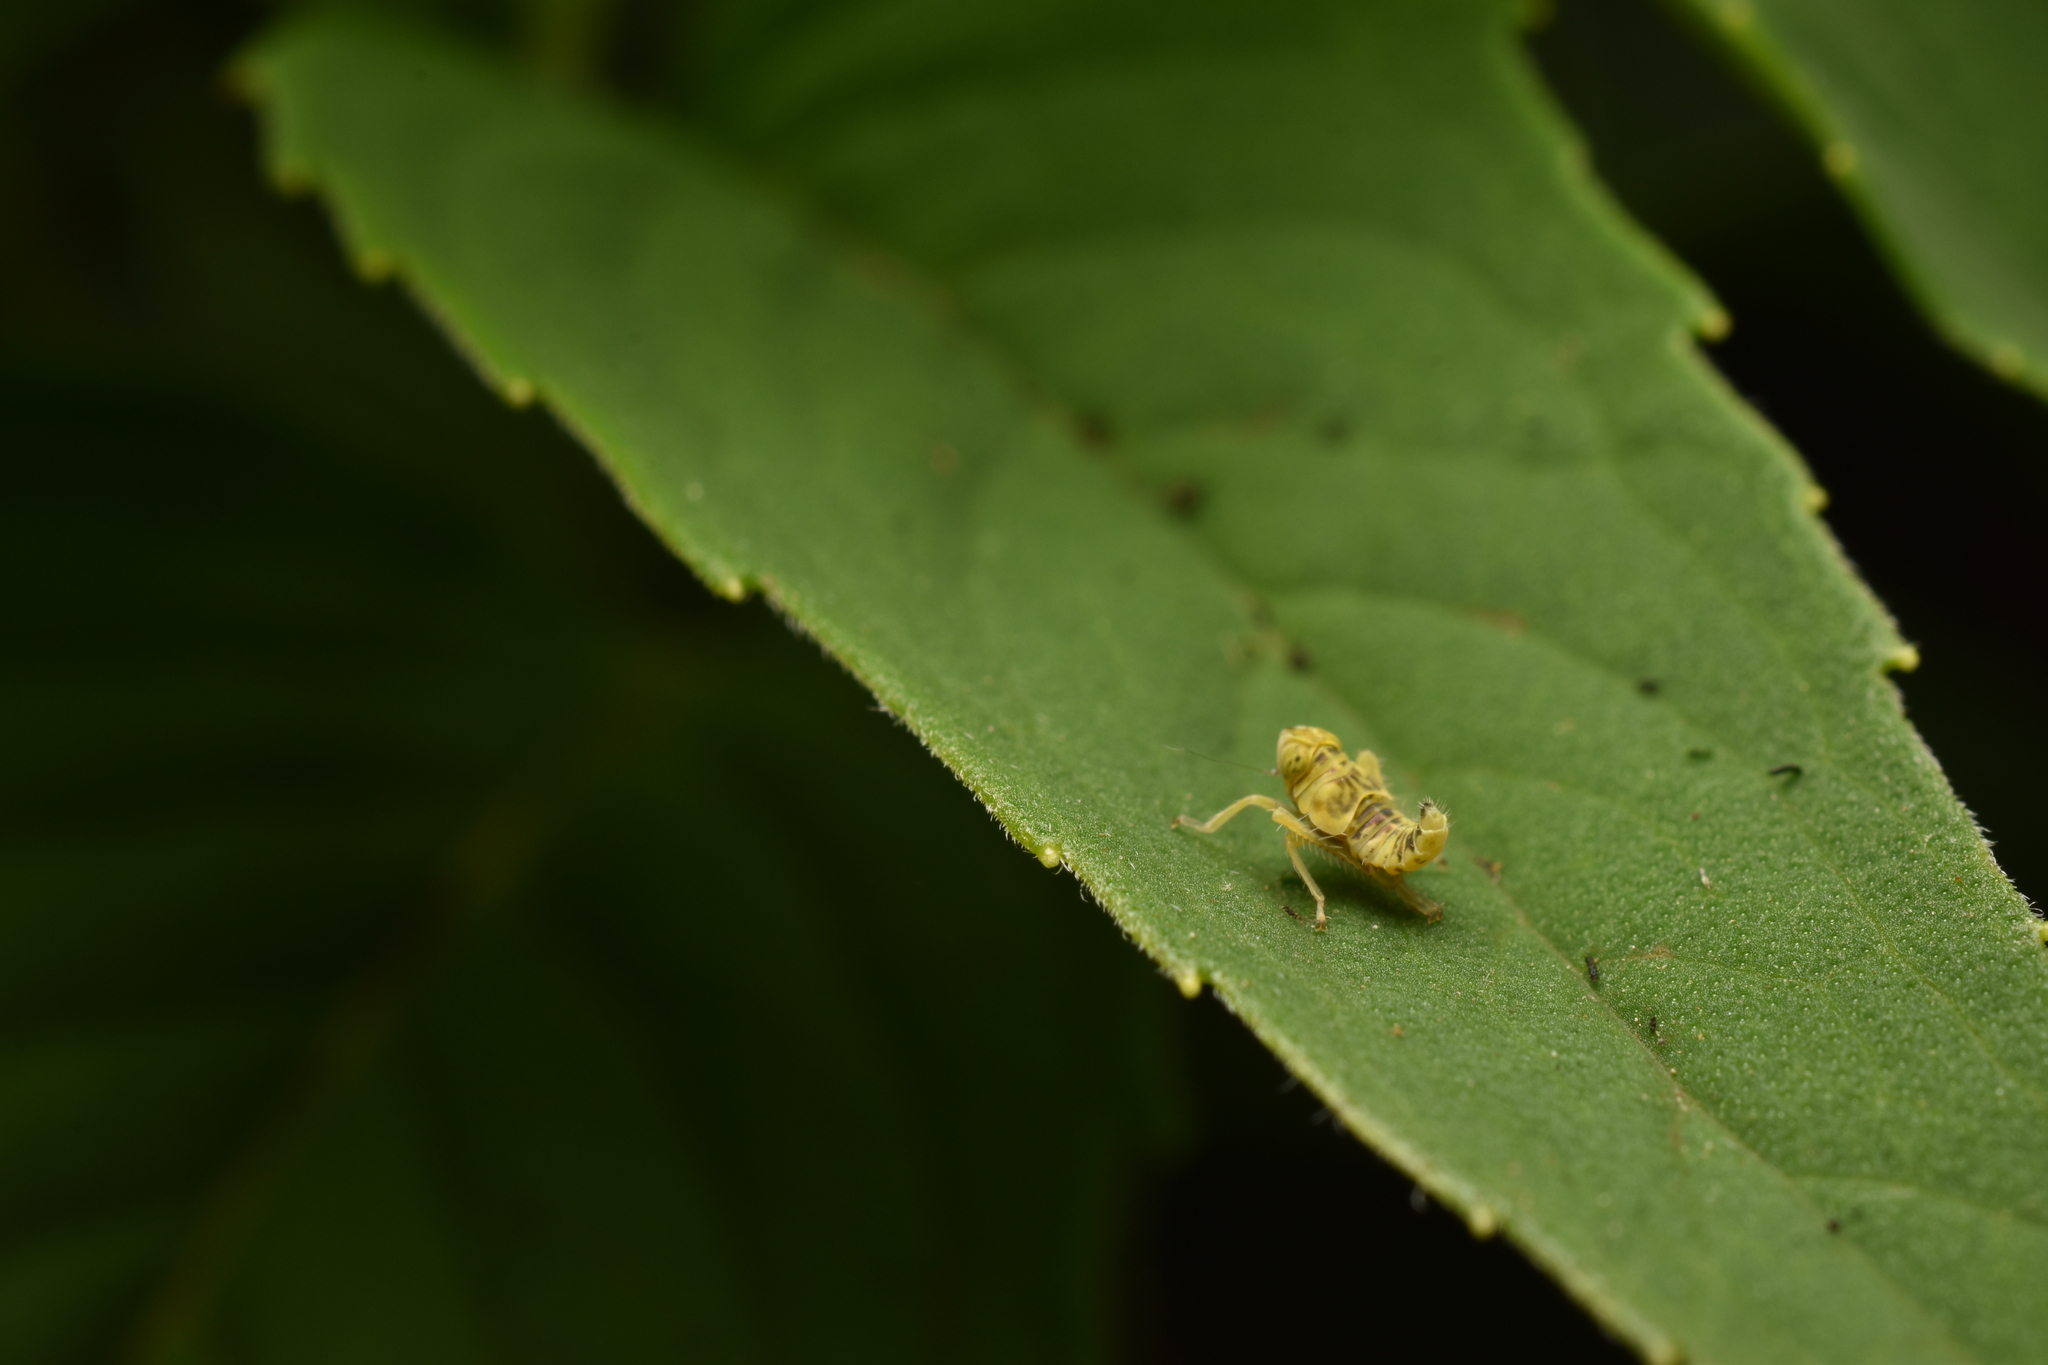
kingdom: Animalia
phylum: Arthropoda
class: Insecta
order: Hemiptera
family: Cicadellidae
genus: Jikradia
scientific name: Jikradia olitoria
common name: Coppery leafhopper
